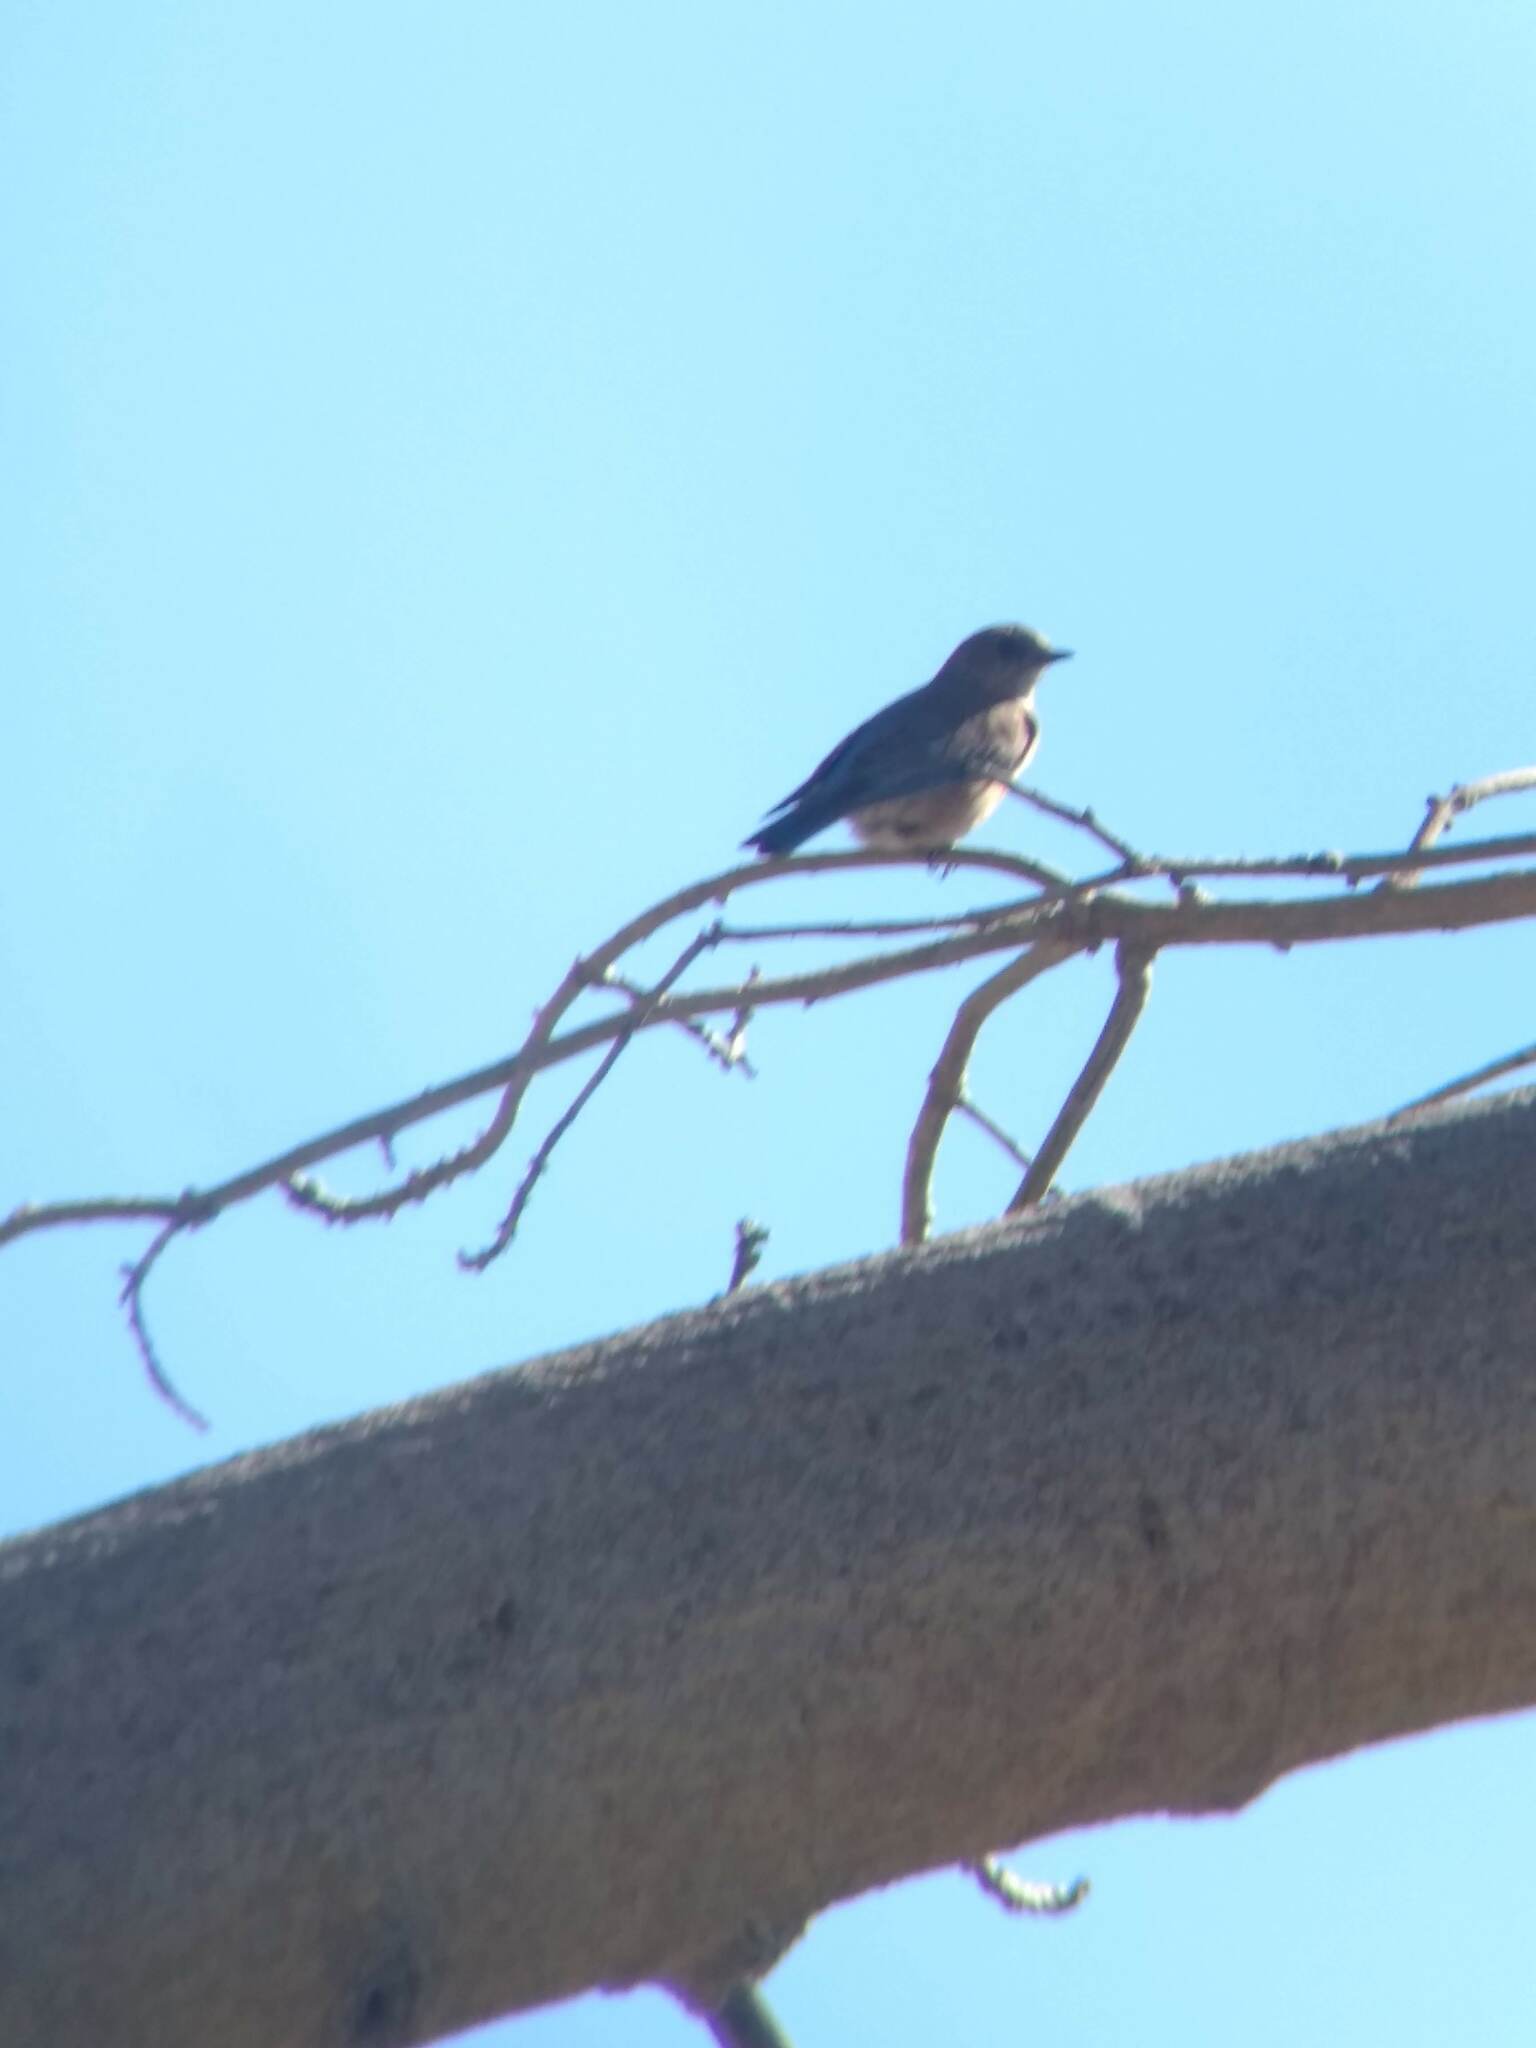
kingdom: Animalia
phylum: Chordata
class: Aves
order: Passeriformes
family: Turdidae
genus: Sialia
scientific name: Sialia
